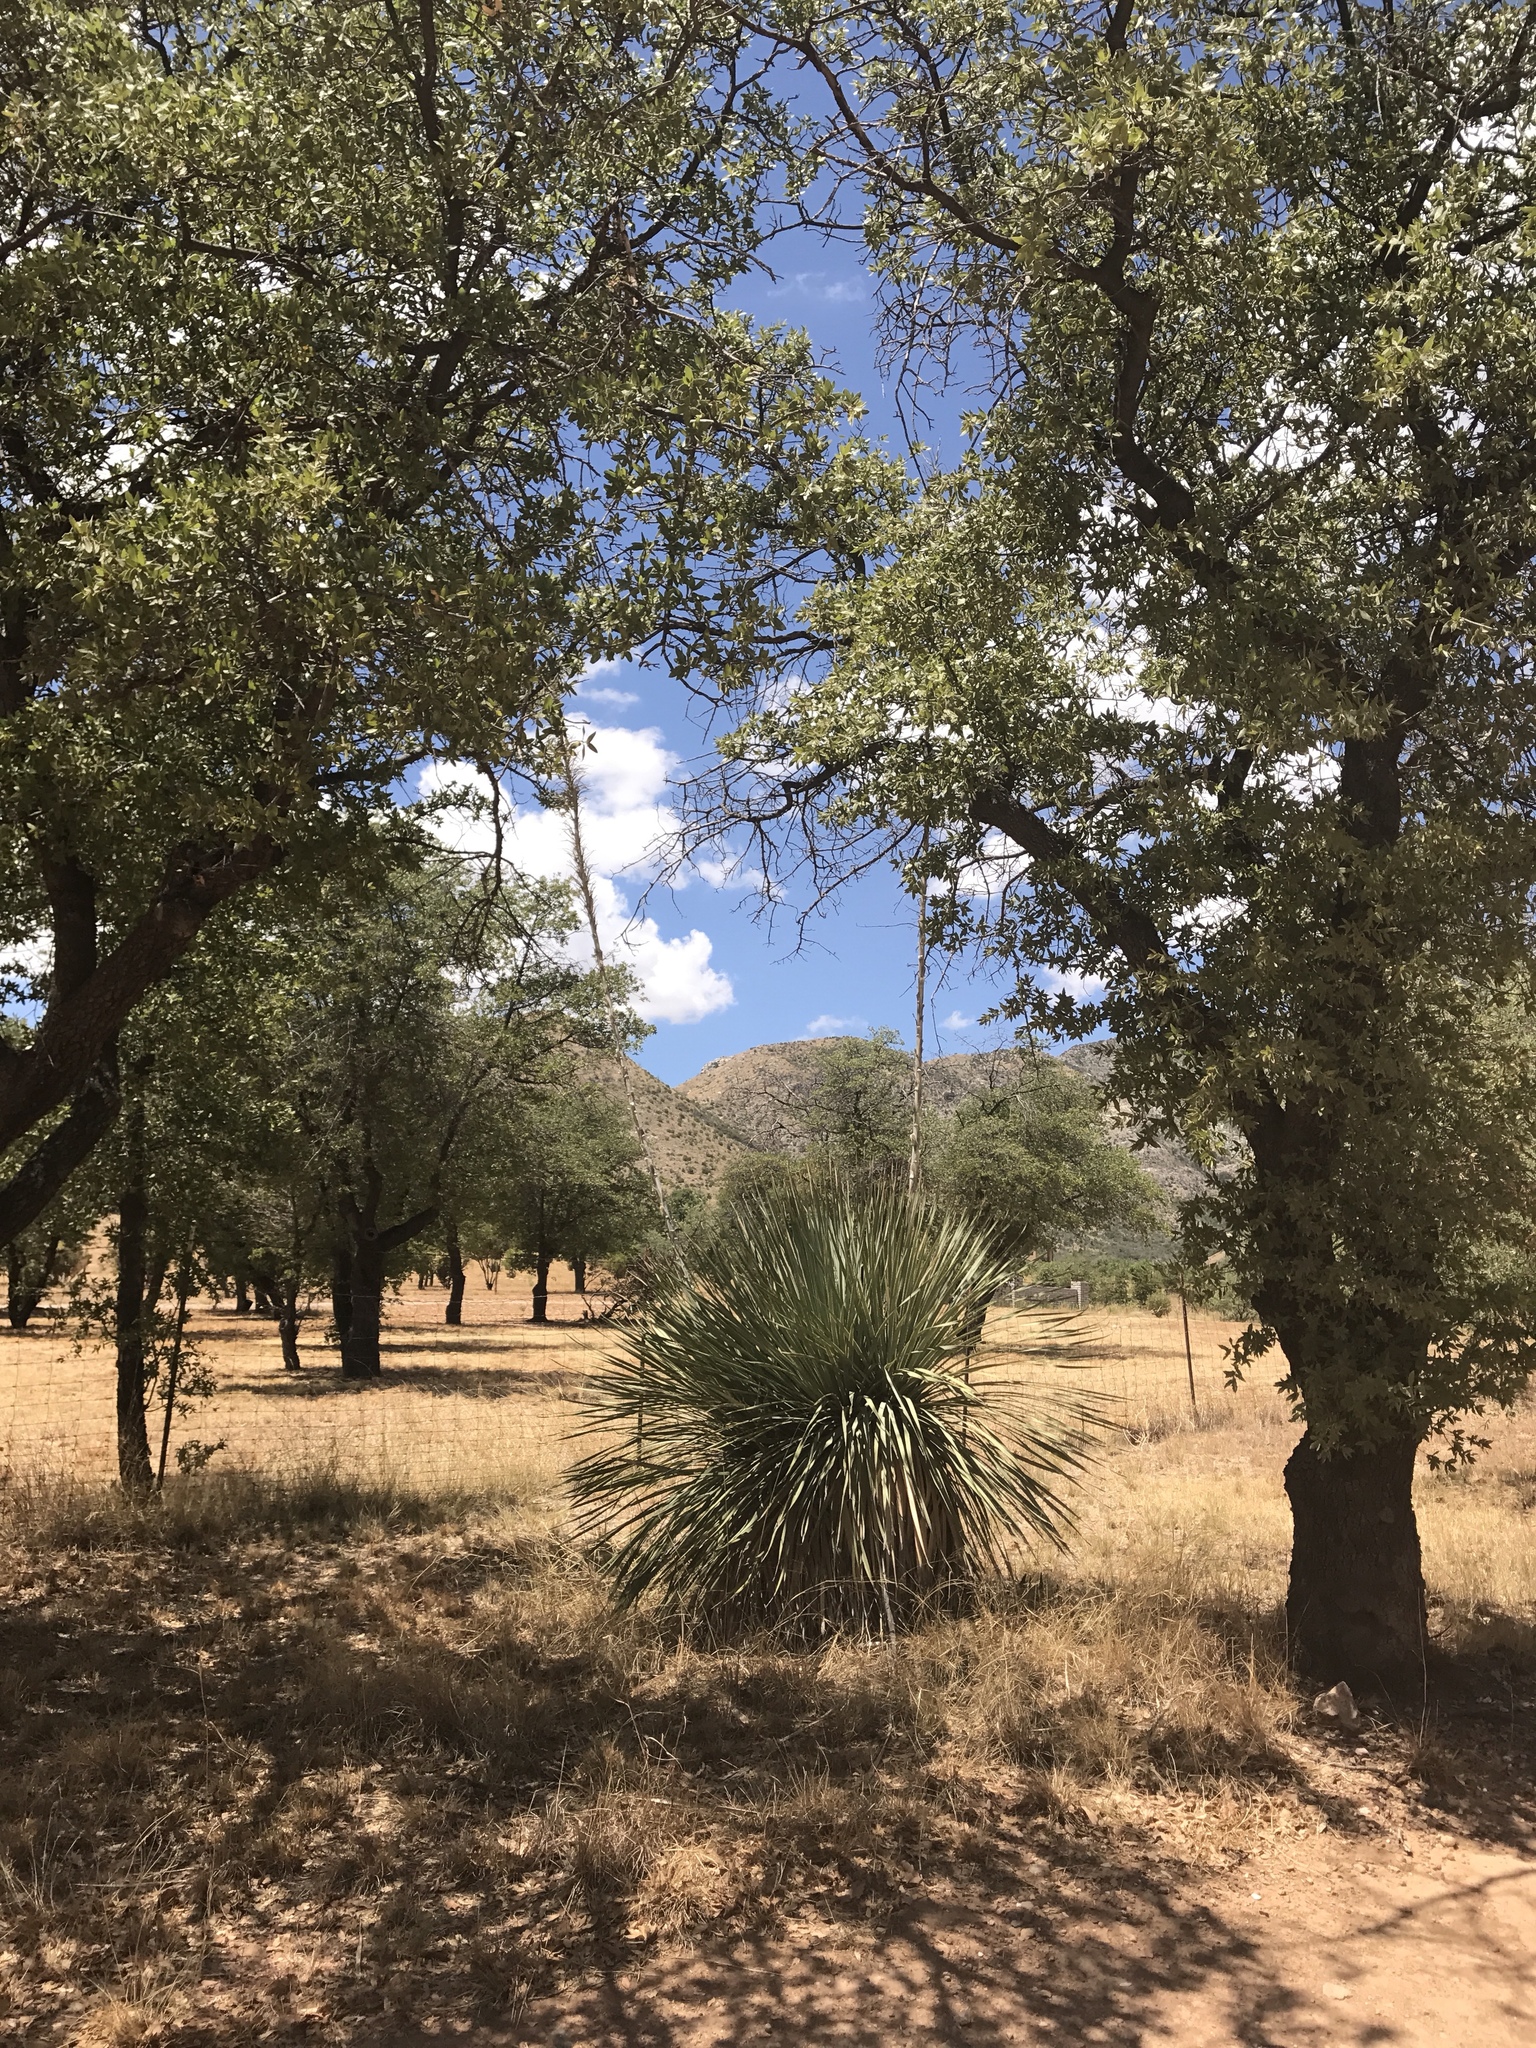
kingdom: Plantae
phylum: Tracheophyta
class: Liliopsida
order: Asparagales
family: Asparagaceae
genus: Dasylirion
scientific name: Dasylirion wheeleri
